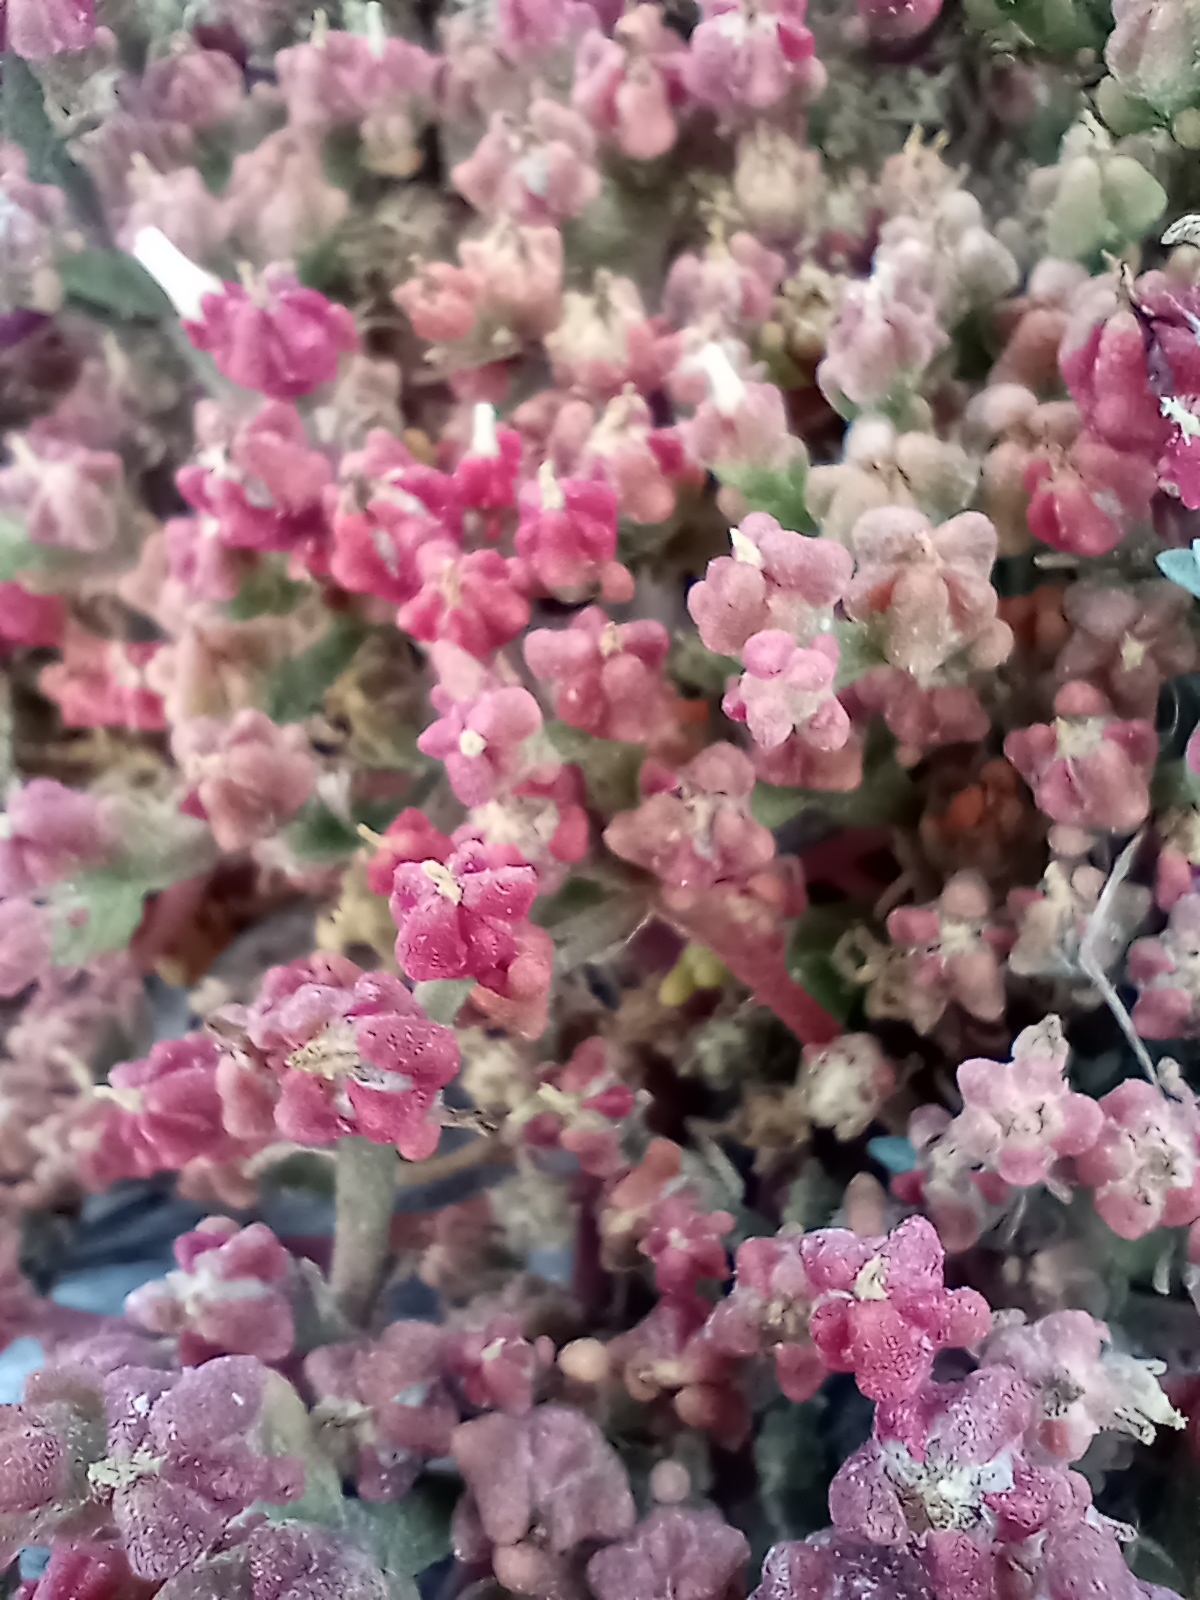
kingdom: Plantae
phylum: Tracheophyta
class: Magnoliopsida
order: Caryophyllales
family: Aizoaceae
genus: Mesembryanthemum
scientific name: Mesembryanthemum nodiflorum
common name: Slenderleaf iceplant
